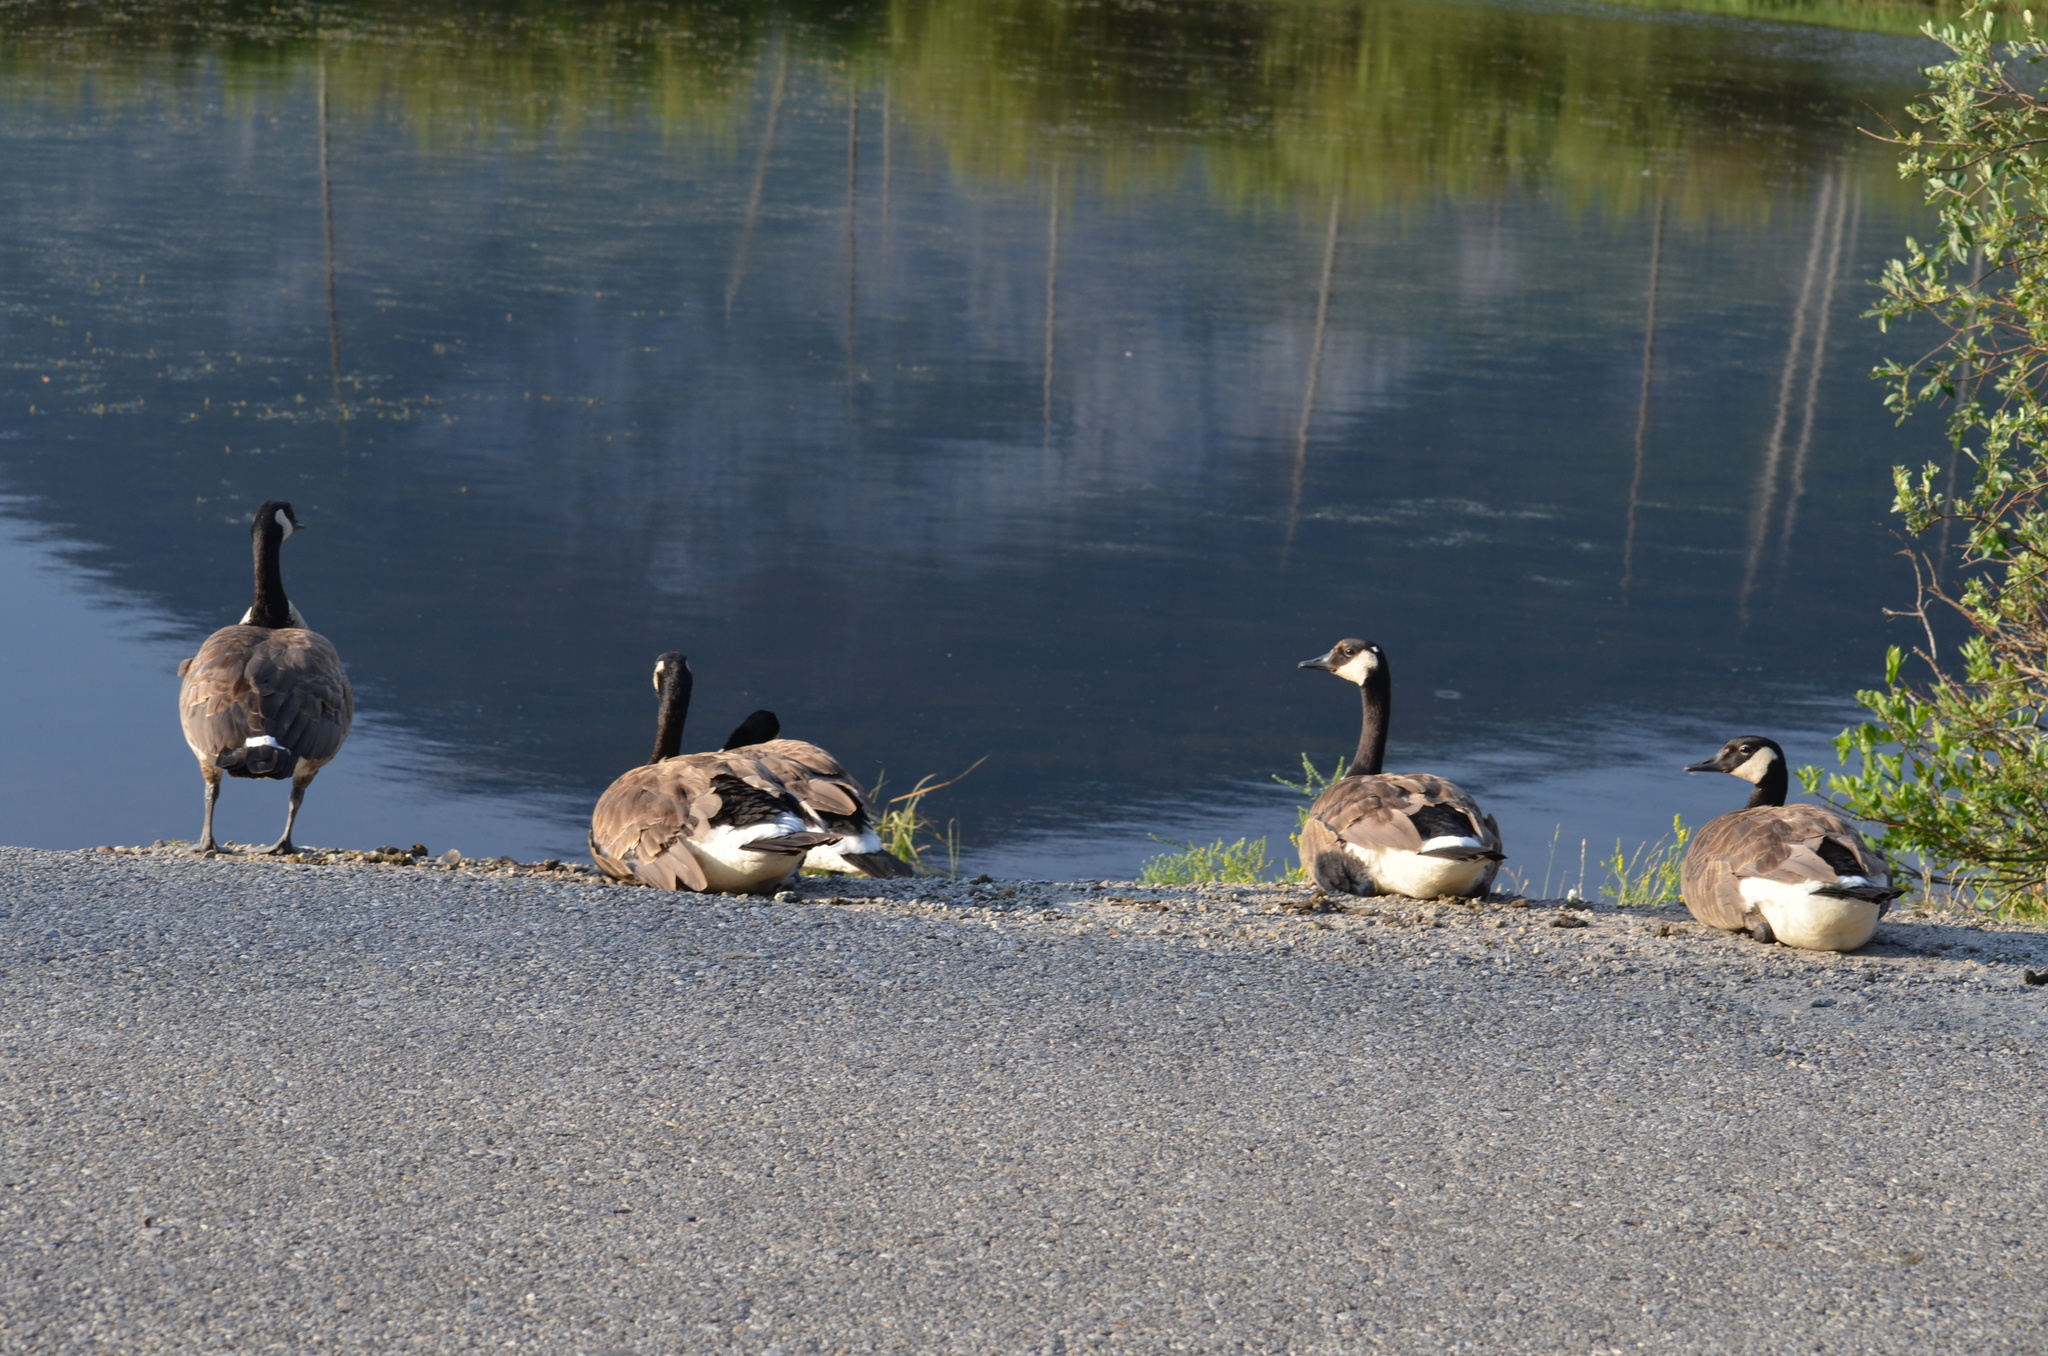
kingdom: Animalia
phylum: Chordata
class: Aves
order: Anseriformes
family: Anatidae
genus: Branta
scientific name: Branta canadensis
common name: Canada goose
